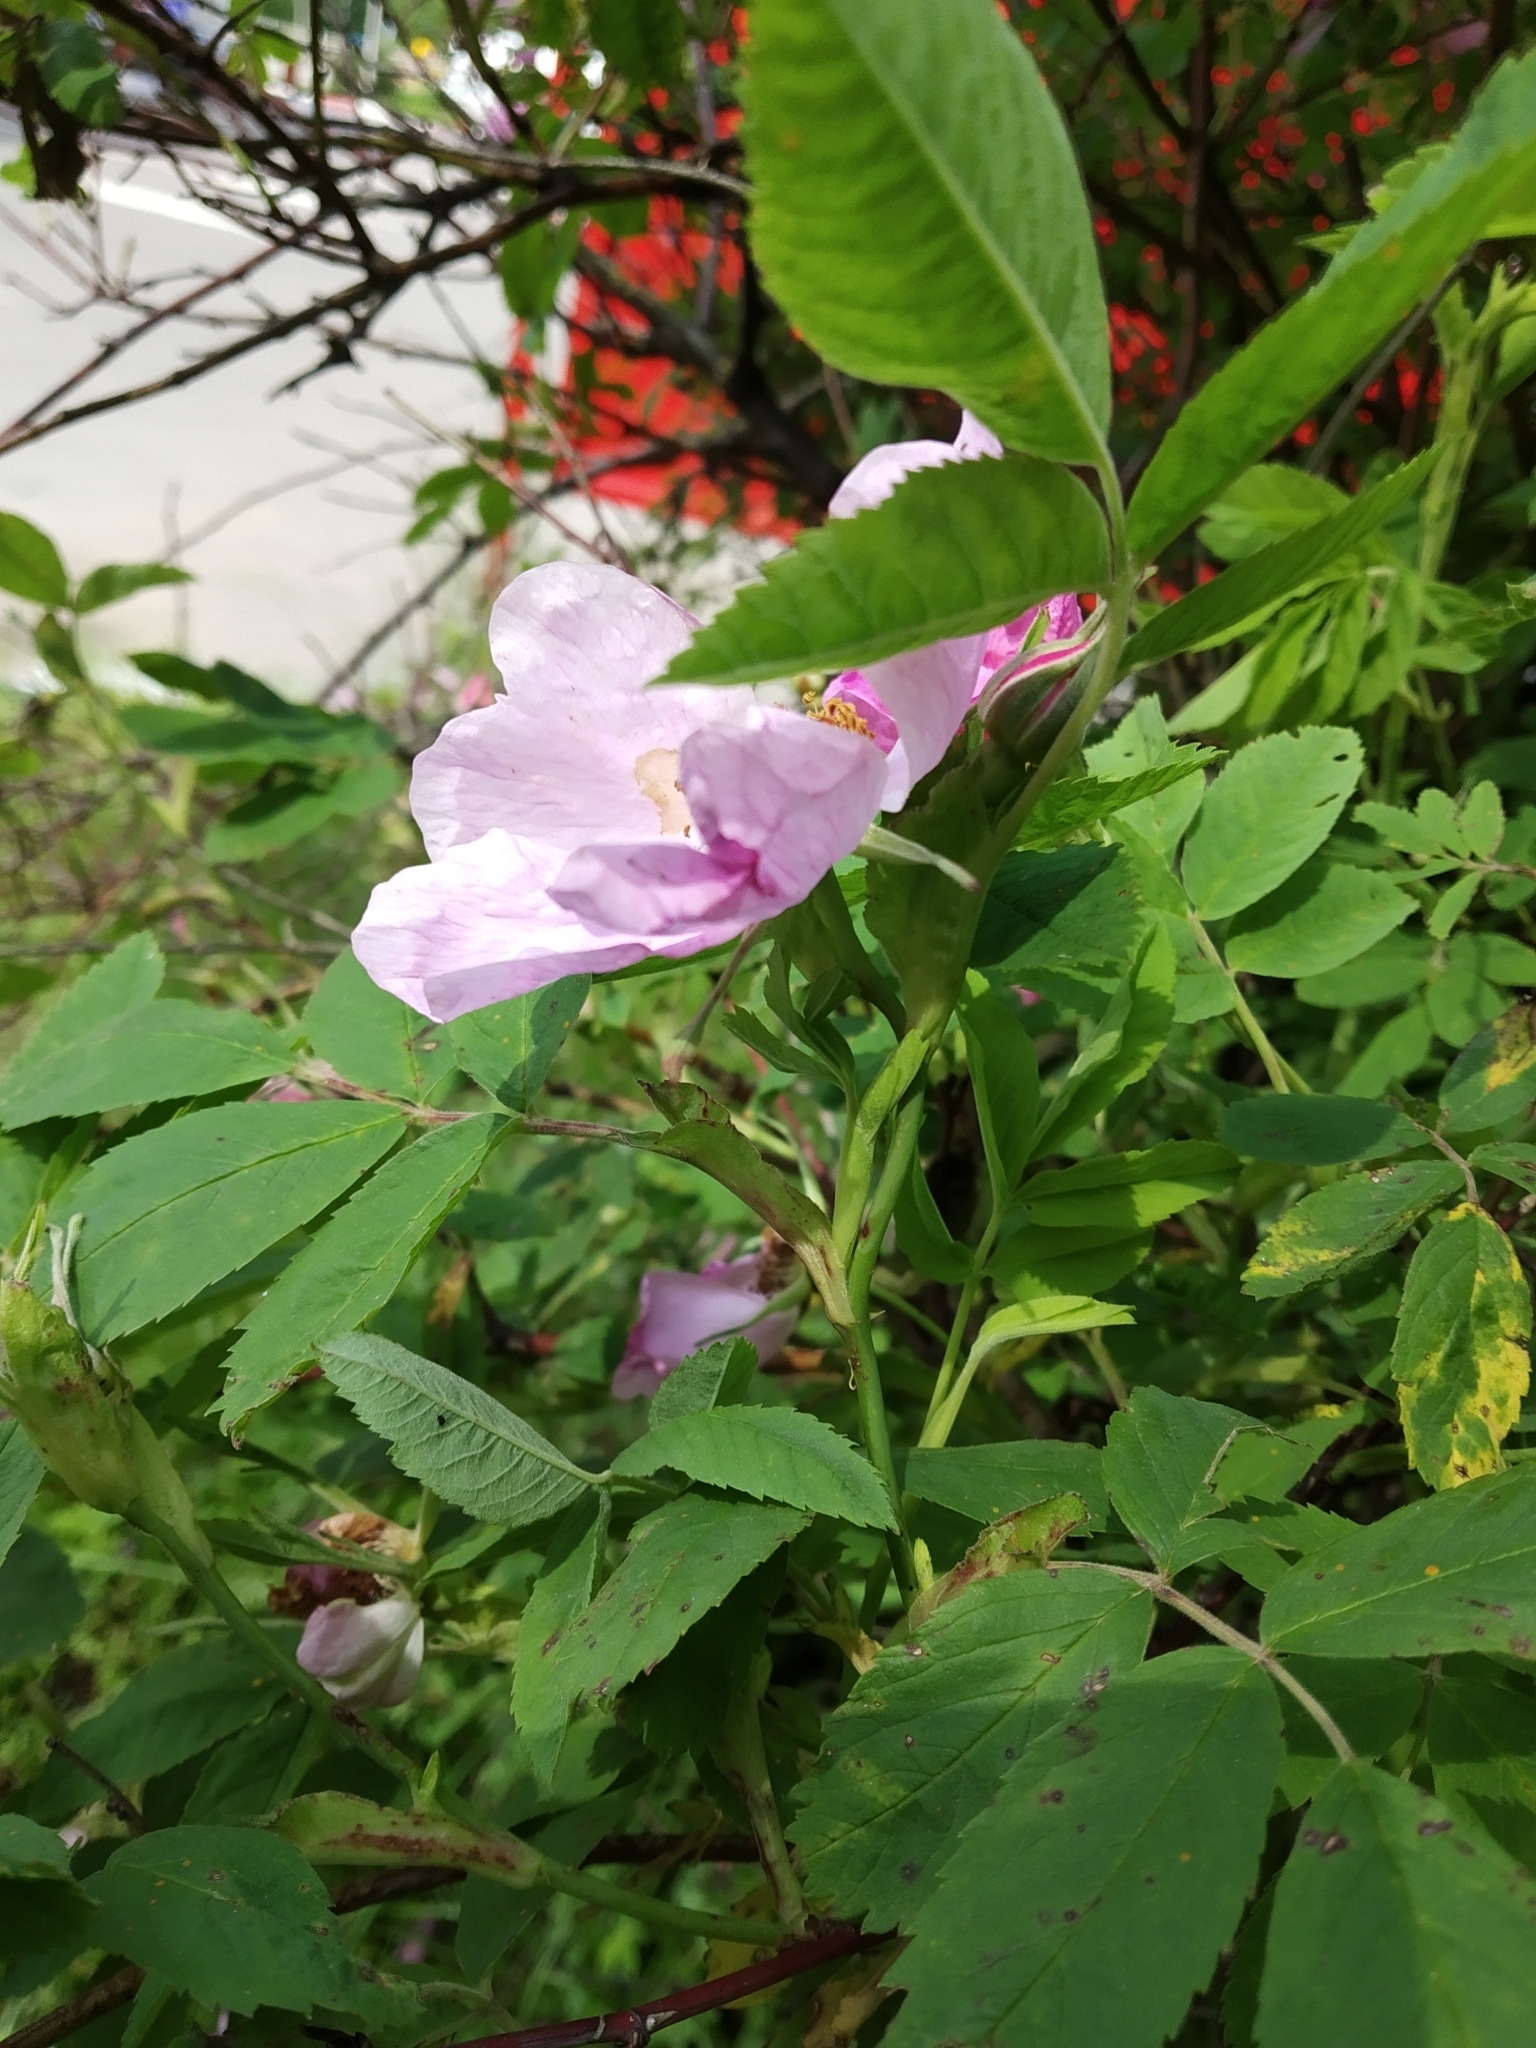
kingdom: Plantae
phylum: Tracheophyta
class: Magnoliopsida
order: Rosales
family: Rosaceae
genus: Rosa
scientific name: Rosa majalis
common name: Cinnamon rose
